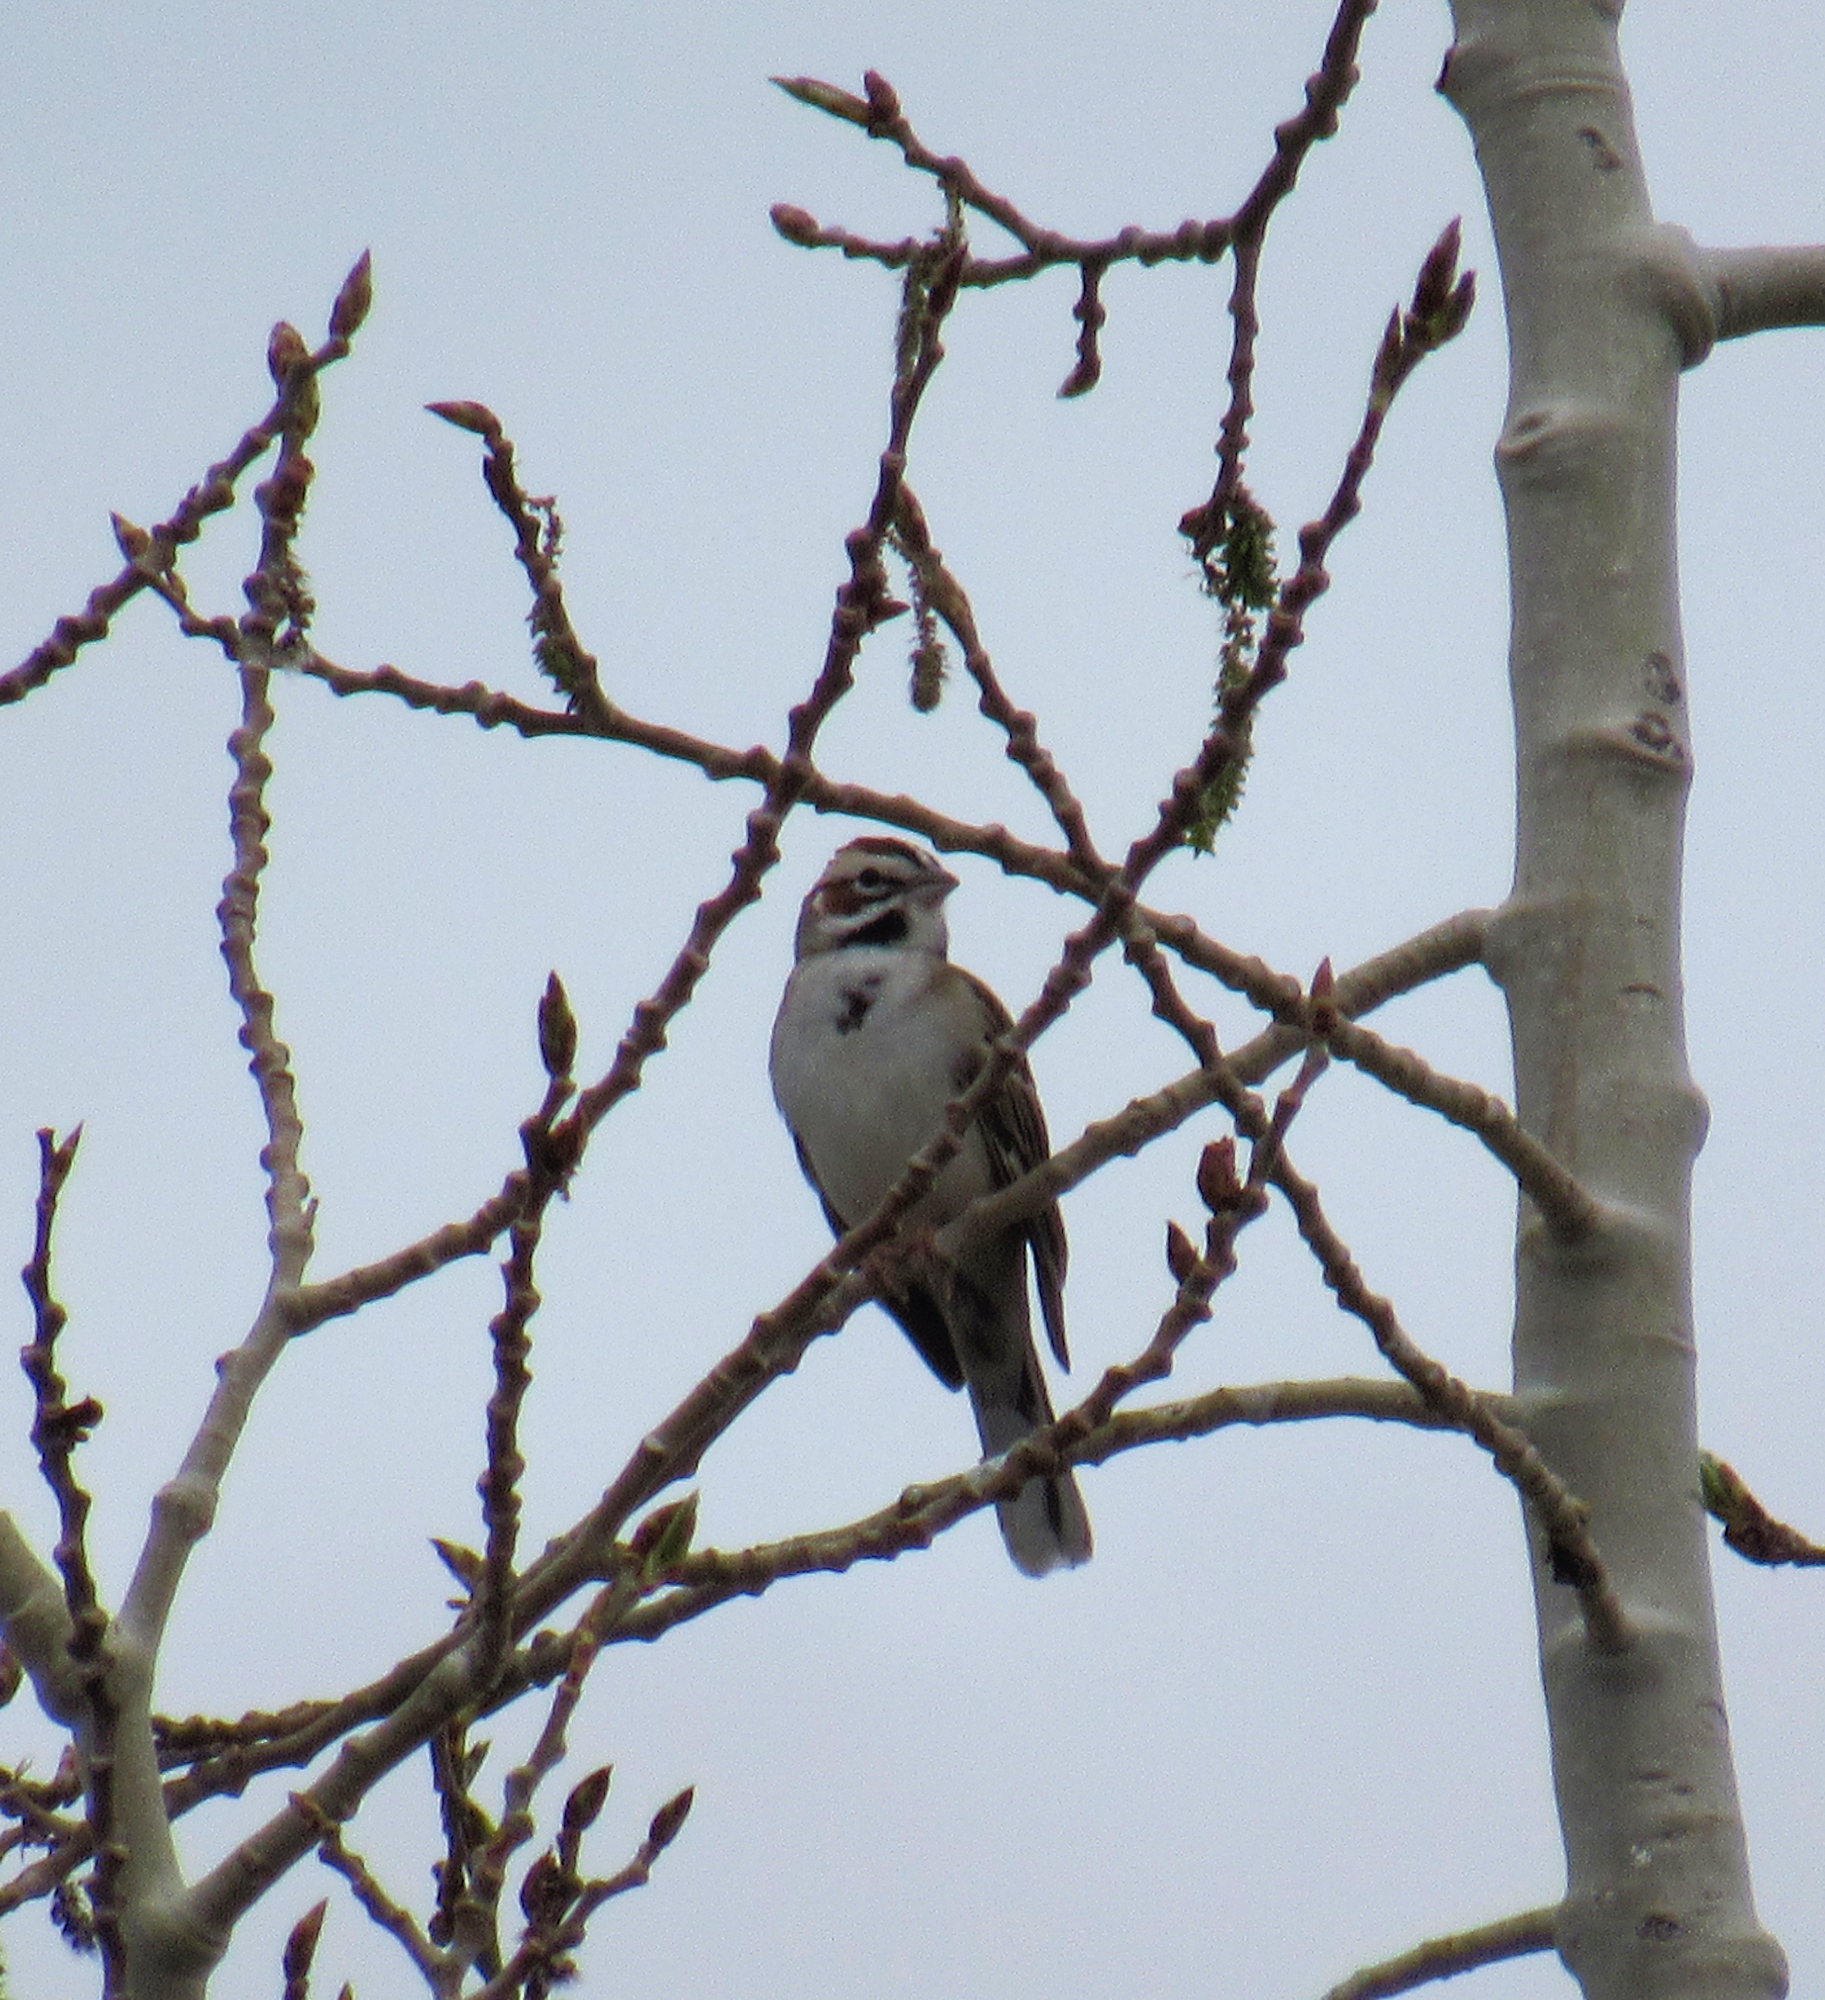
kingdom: Animalia
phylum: Chordata
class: Aves
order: Passeriformes
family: Passerellidae
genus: Chondestes
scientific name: Chondestes grammacus
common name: Lark sparrow
